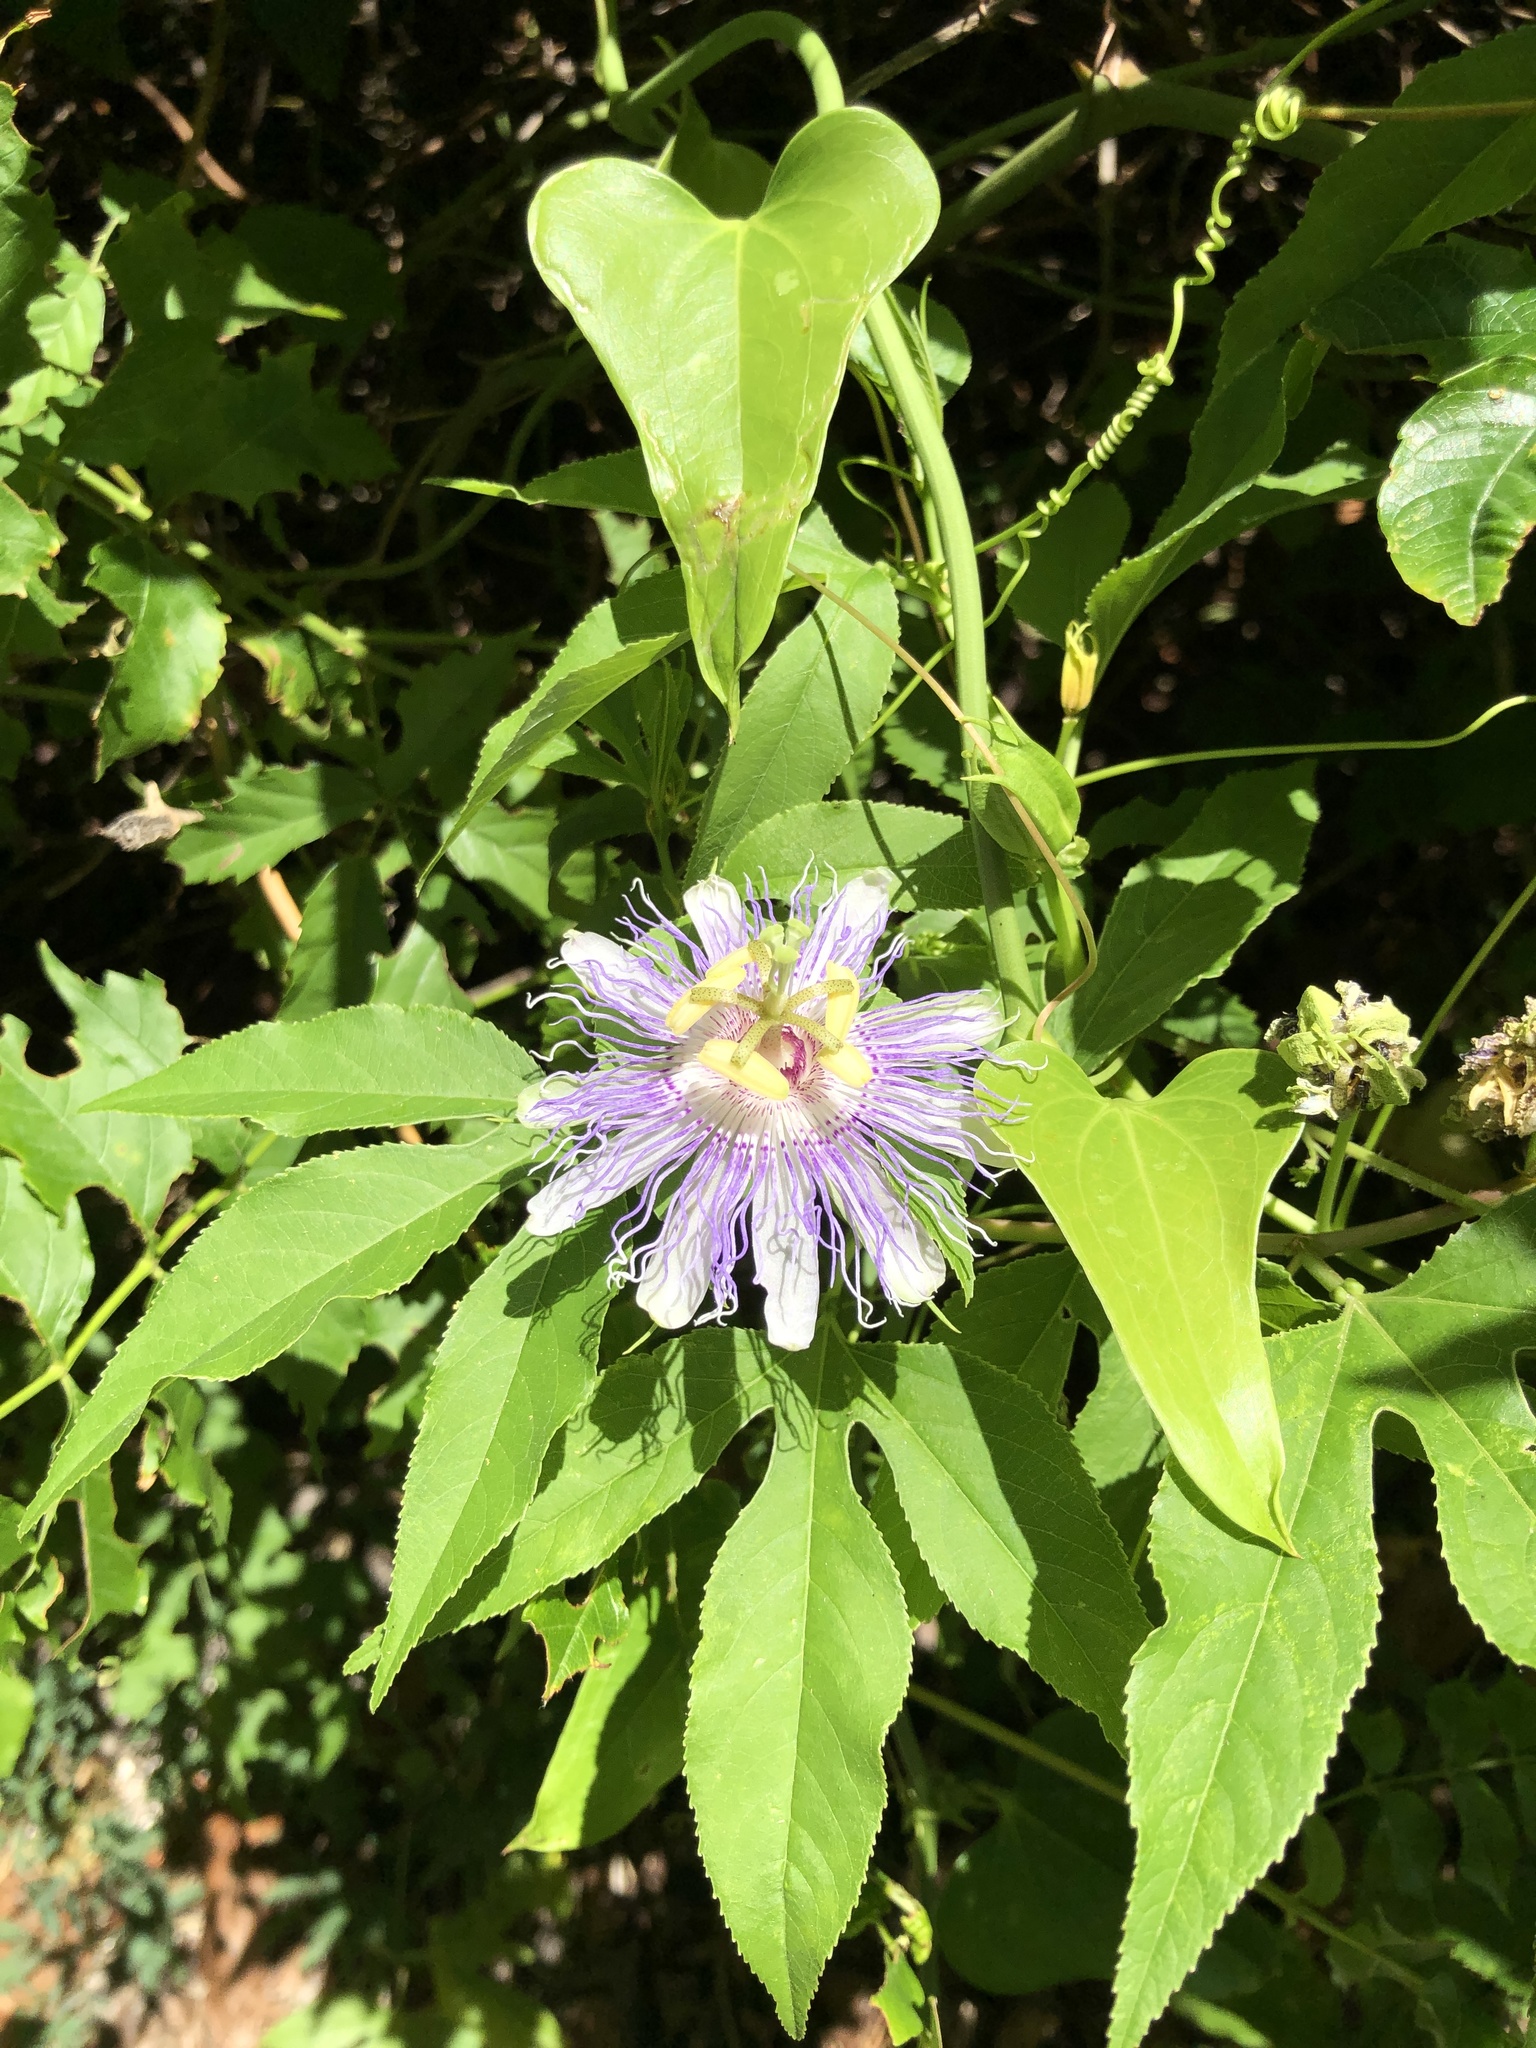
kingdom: Plantae
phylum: Tracheophyta
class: Magnoliopsida
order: Malpighiales
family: Passifloraceae
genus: Passiflora
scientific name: Passiflora incarnata
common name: Apricot-vine
